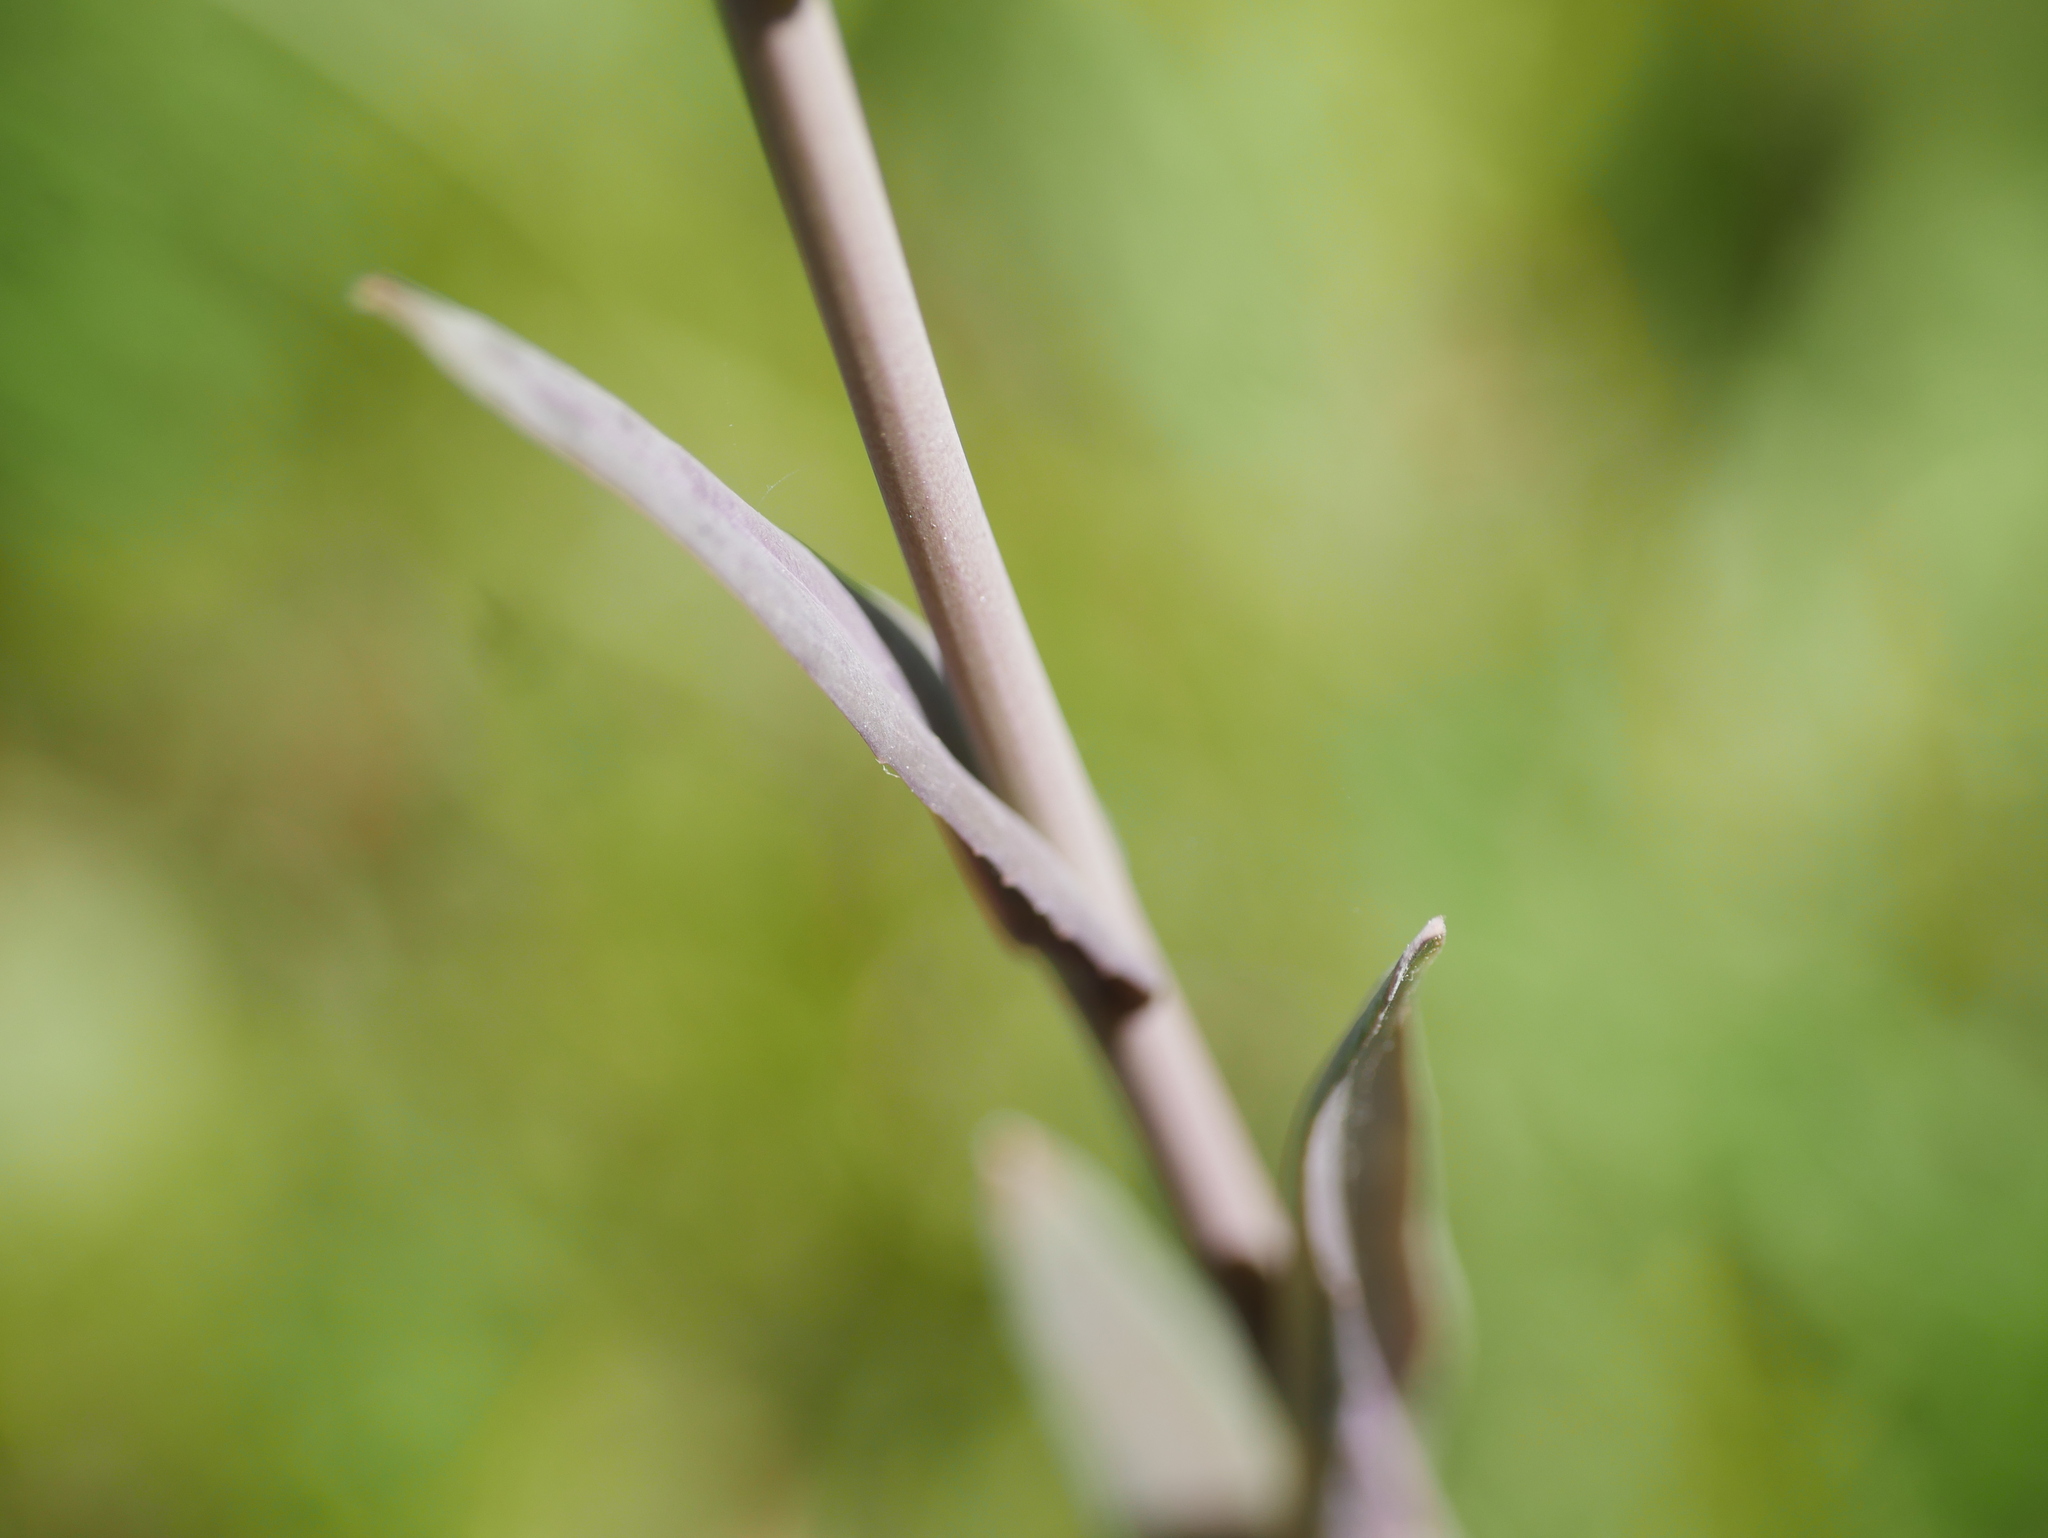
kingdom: Plantae
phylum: Tracheophyta
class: Magnoliopsida
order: Brassicales
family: Brassicaceae
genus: Turritis
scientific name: Turritis glabra
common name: Tower rockcress
